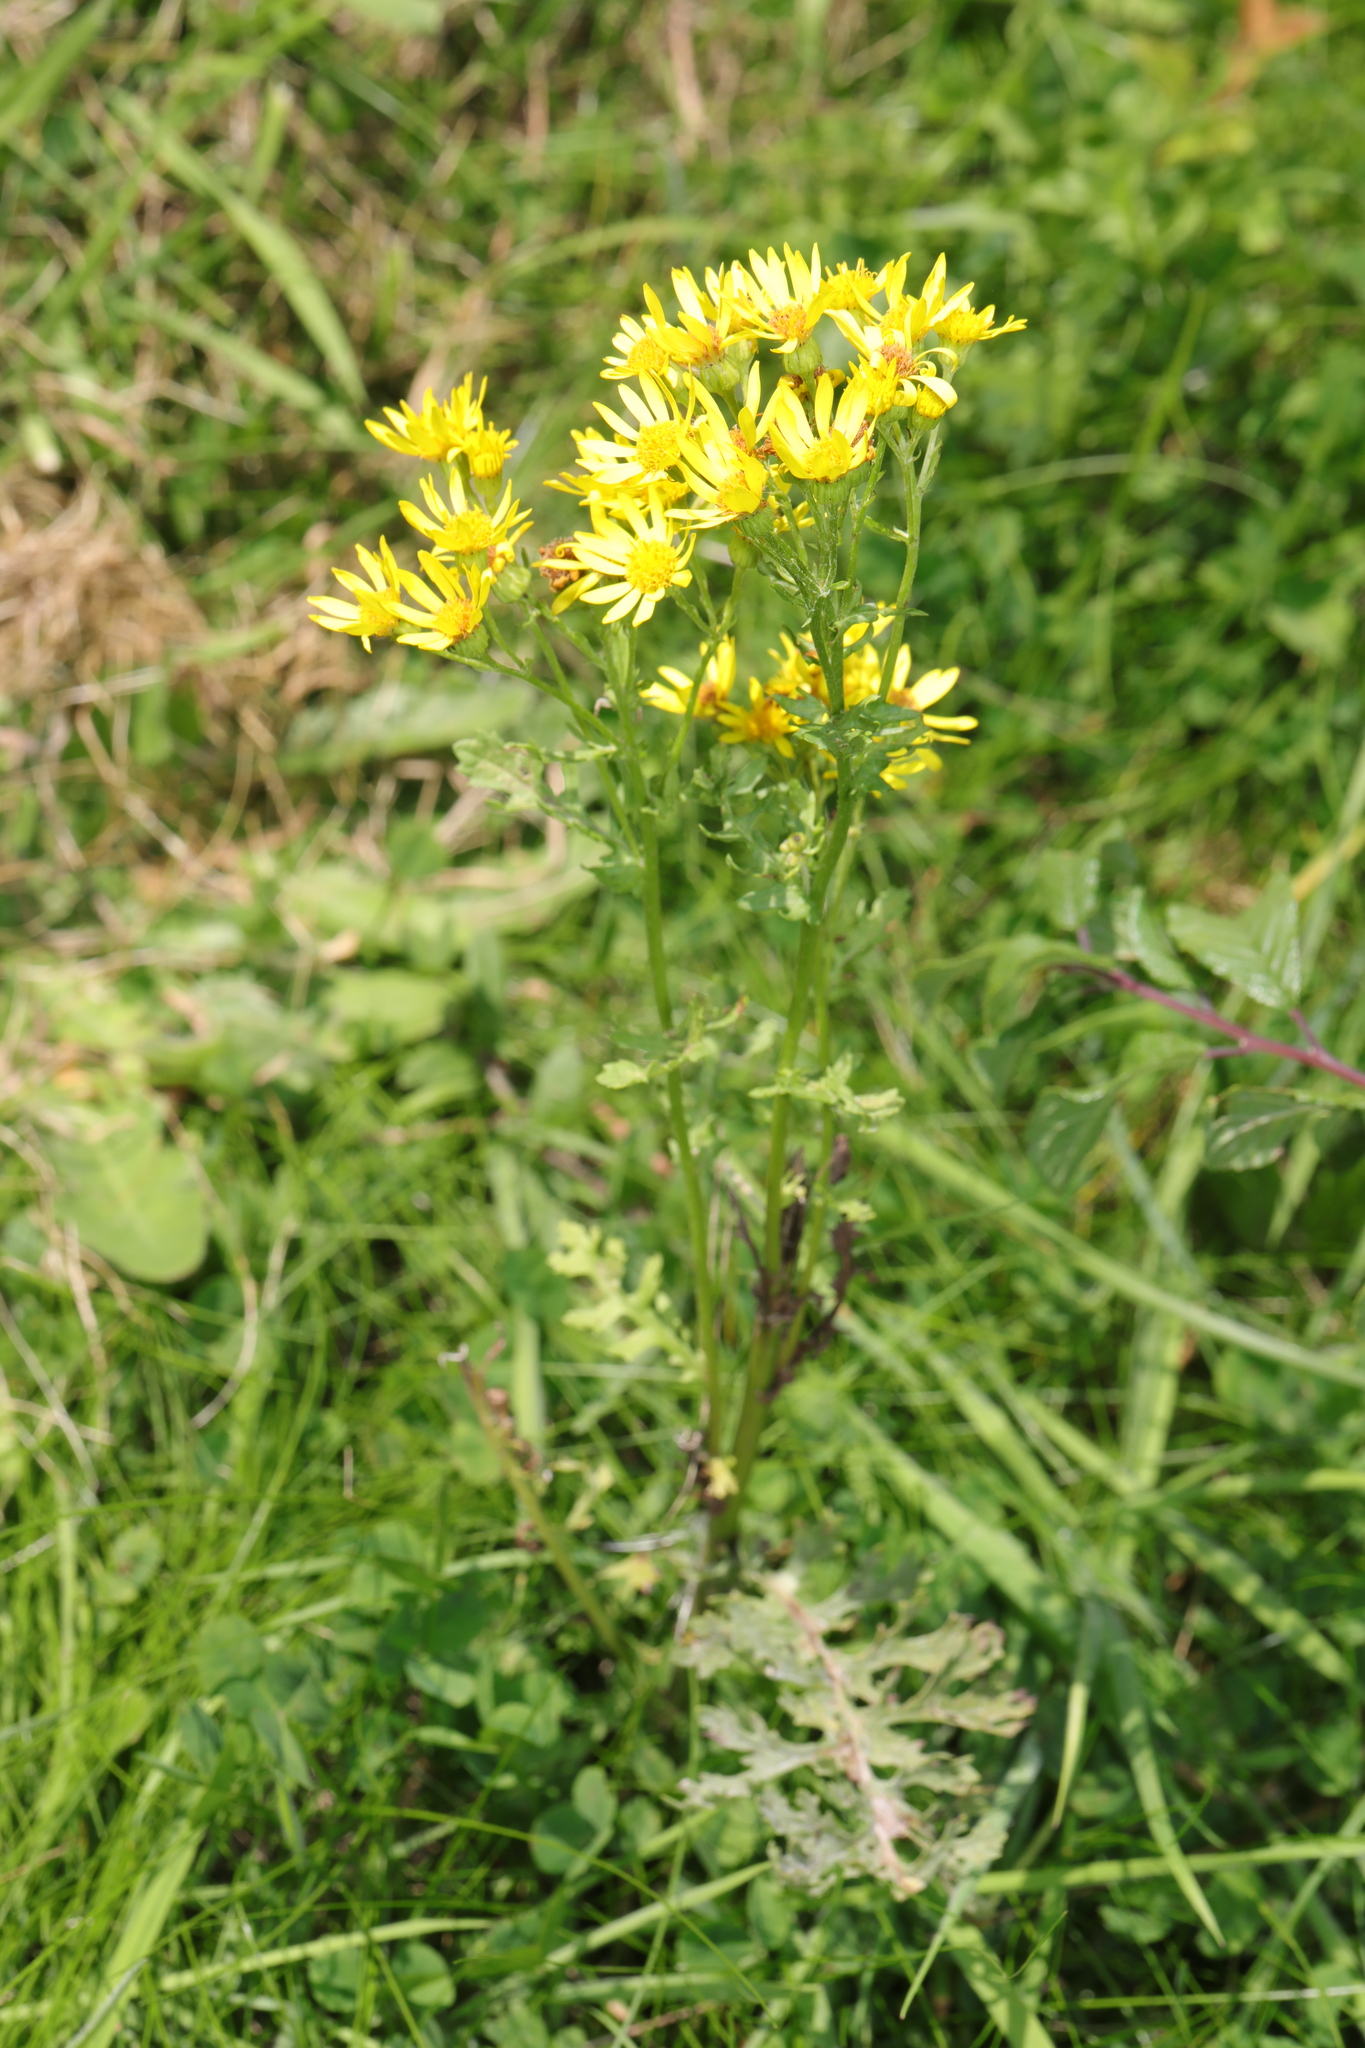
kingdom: Plantae
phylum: Tracheophyta
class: Magnoliopsida
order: Asterales
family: Asteraceae
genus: Jacobaea
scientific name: Jacobaea vulgaris
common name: Stinking willie
